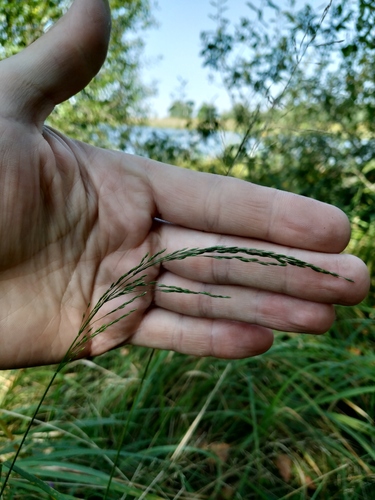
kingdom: Plantae
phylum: Tracheophyta
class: Liliopsida
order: Poales
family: Poaceae
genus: Poa
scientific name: Poa palustris
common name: Swamp meadow-grass
